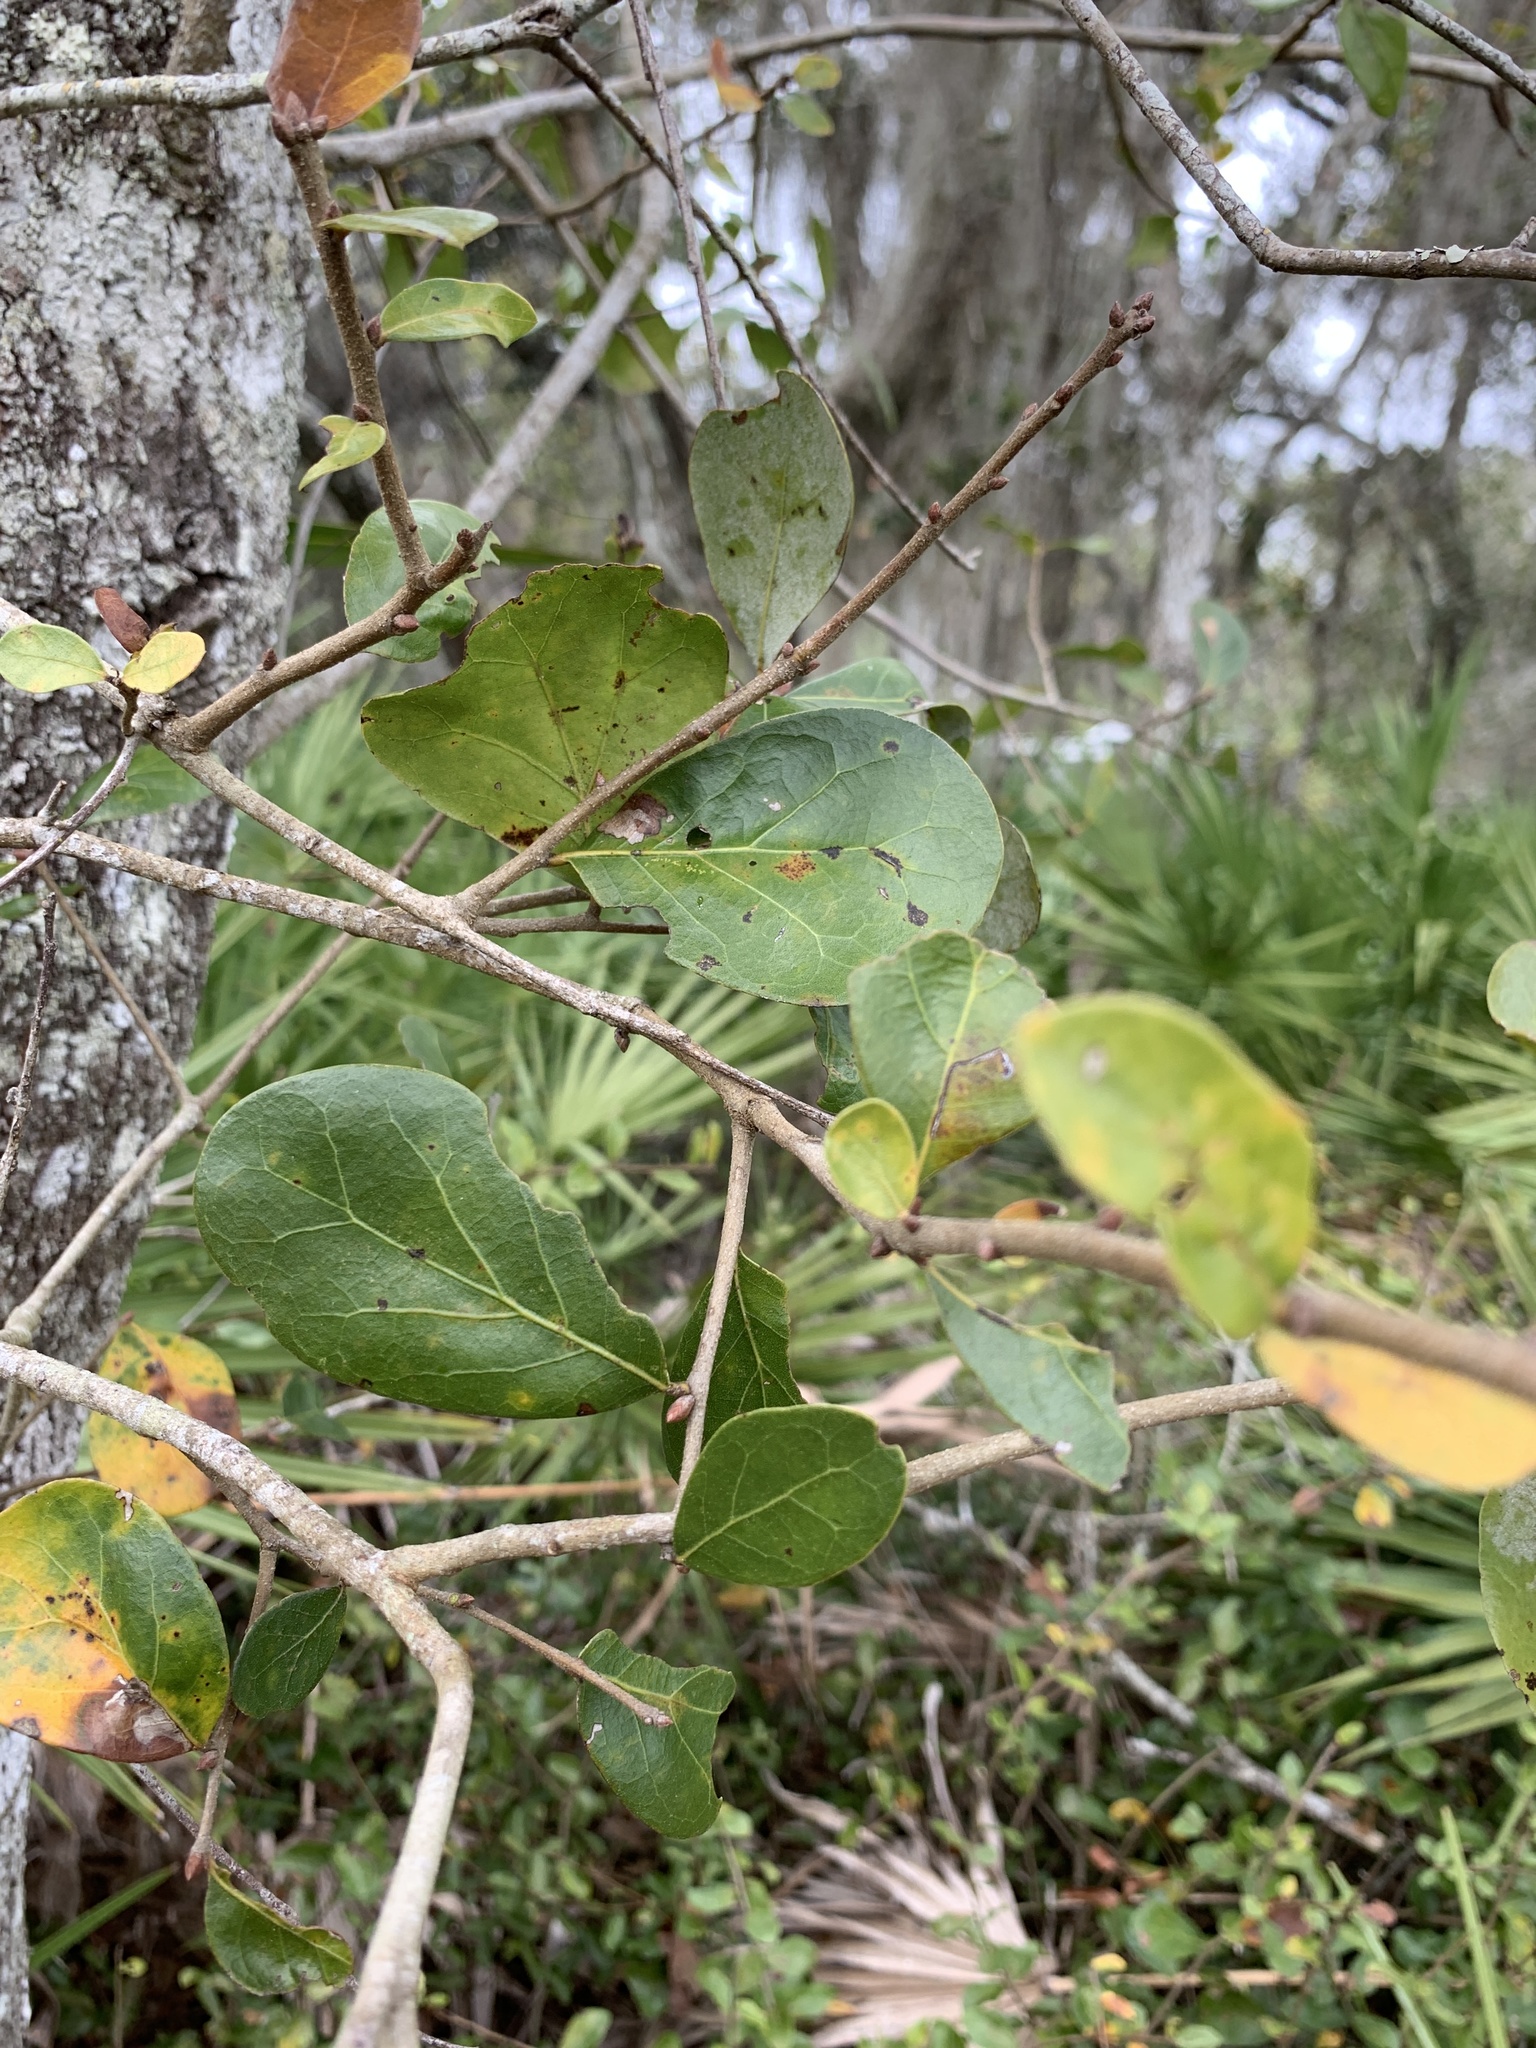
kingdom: Plantae
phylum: Tracheophyta
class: Magnoliopsida
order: Fagales
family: Fagaceae
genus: Quercus
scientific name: Quercus myrtifolia
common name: Myrtle oak
